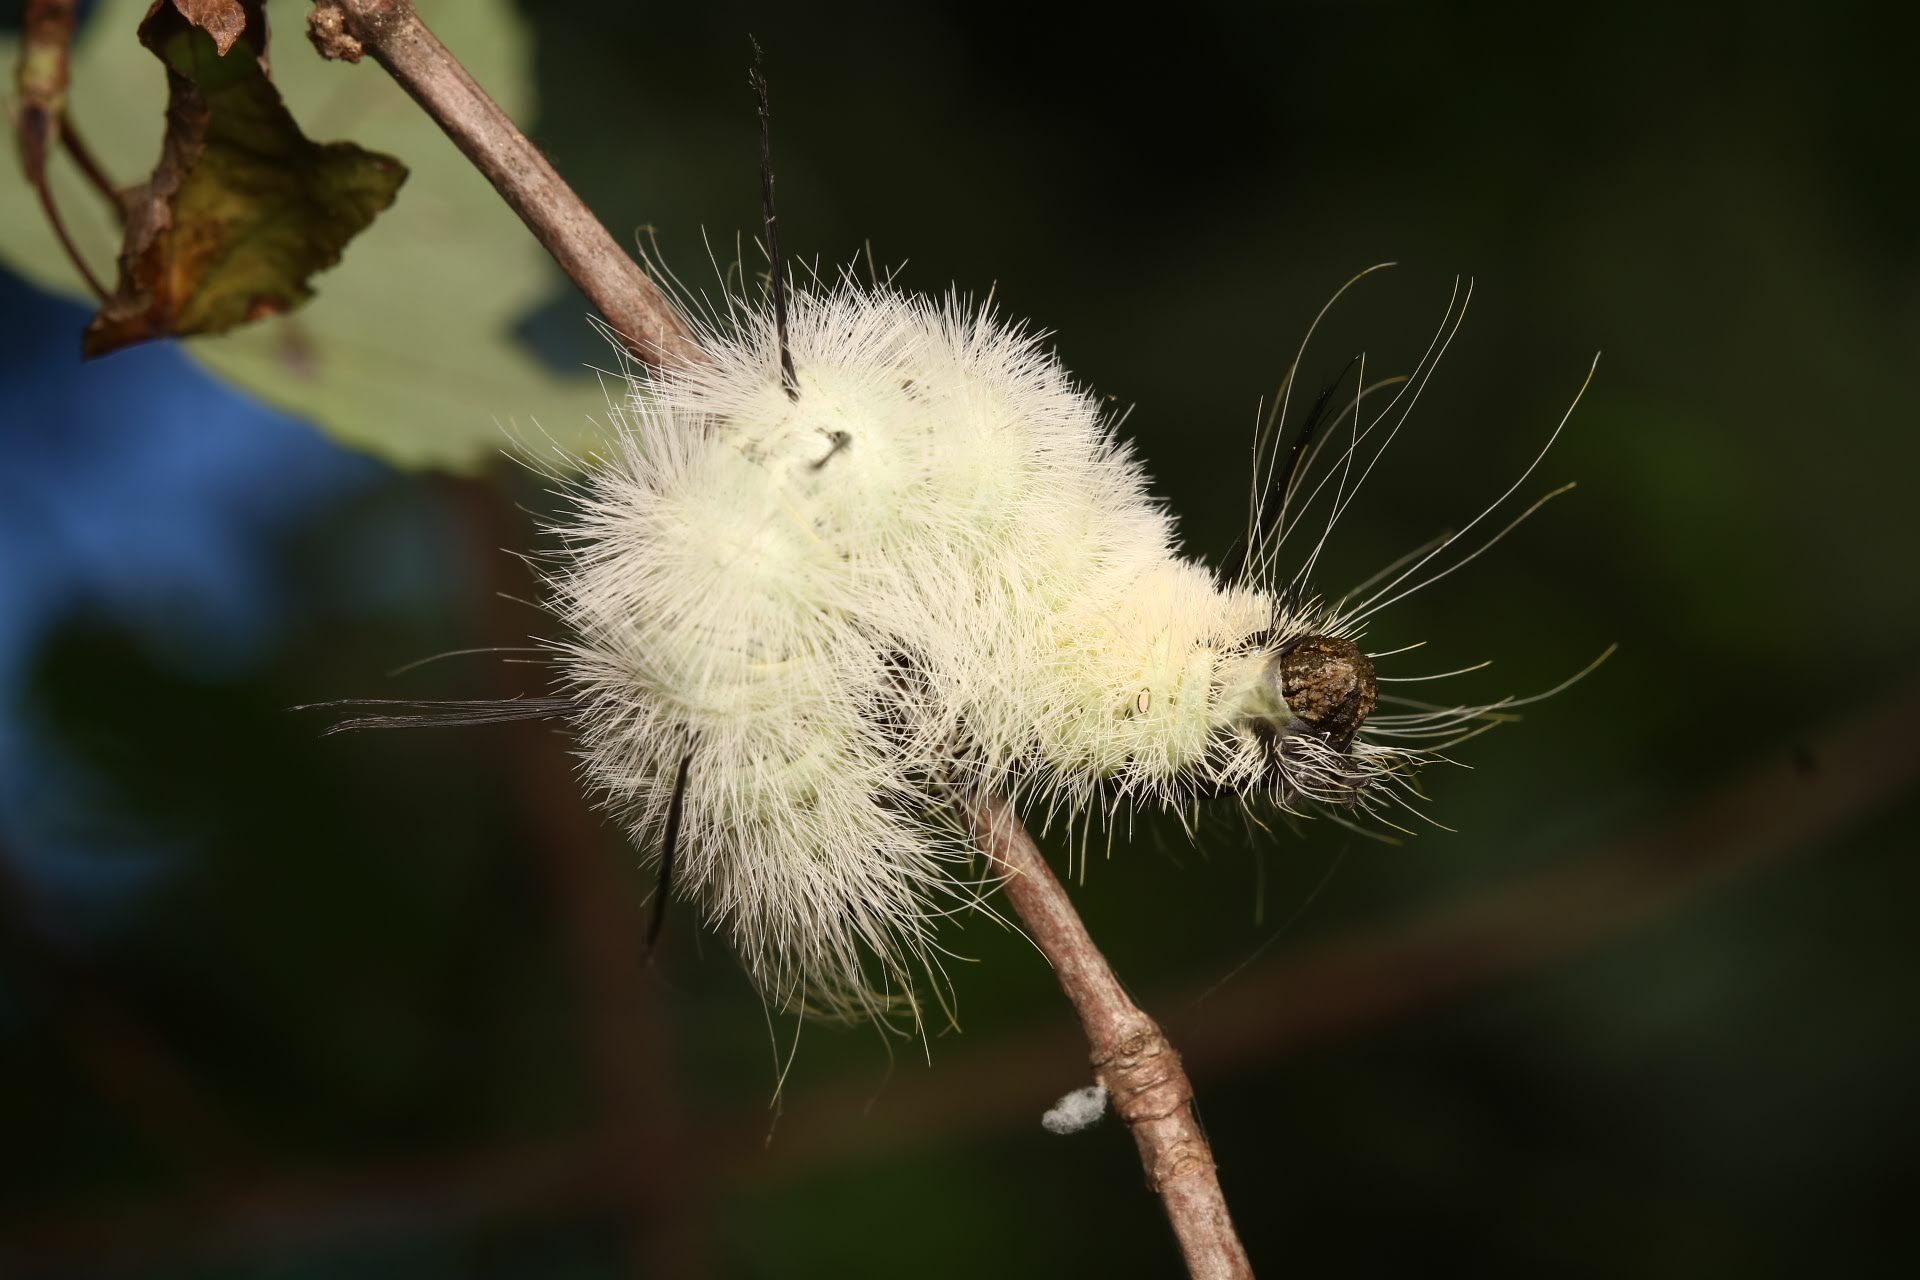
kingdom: Animalia
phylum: Arthropoda
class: Insecta
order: Lepidoptera
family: Noctuidae
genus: Acronicta
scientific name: Acronicta americana
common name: American dagger
